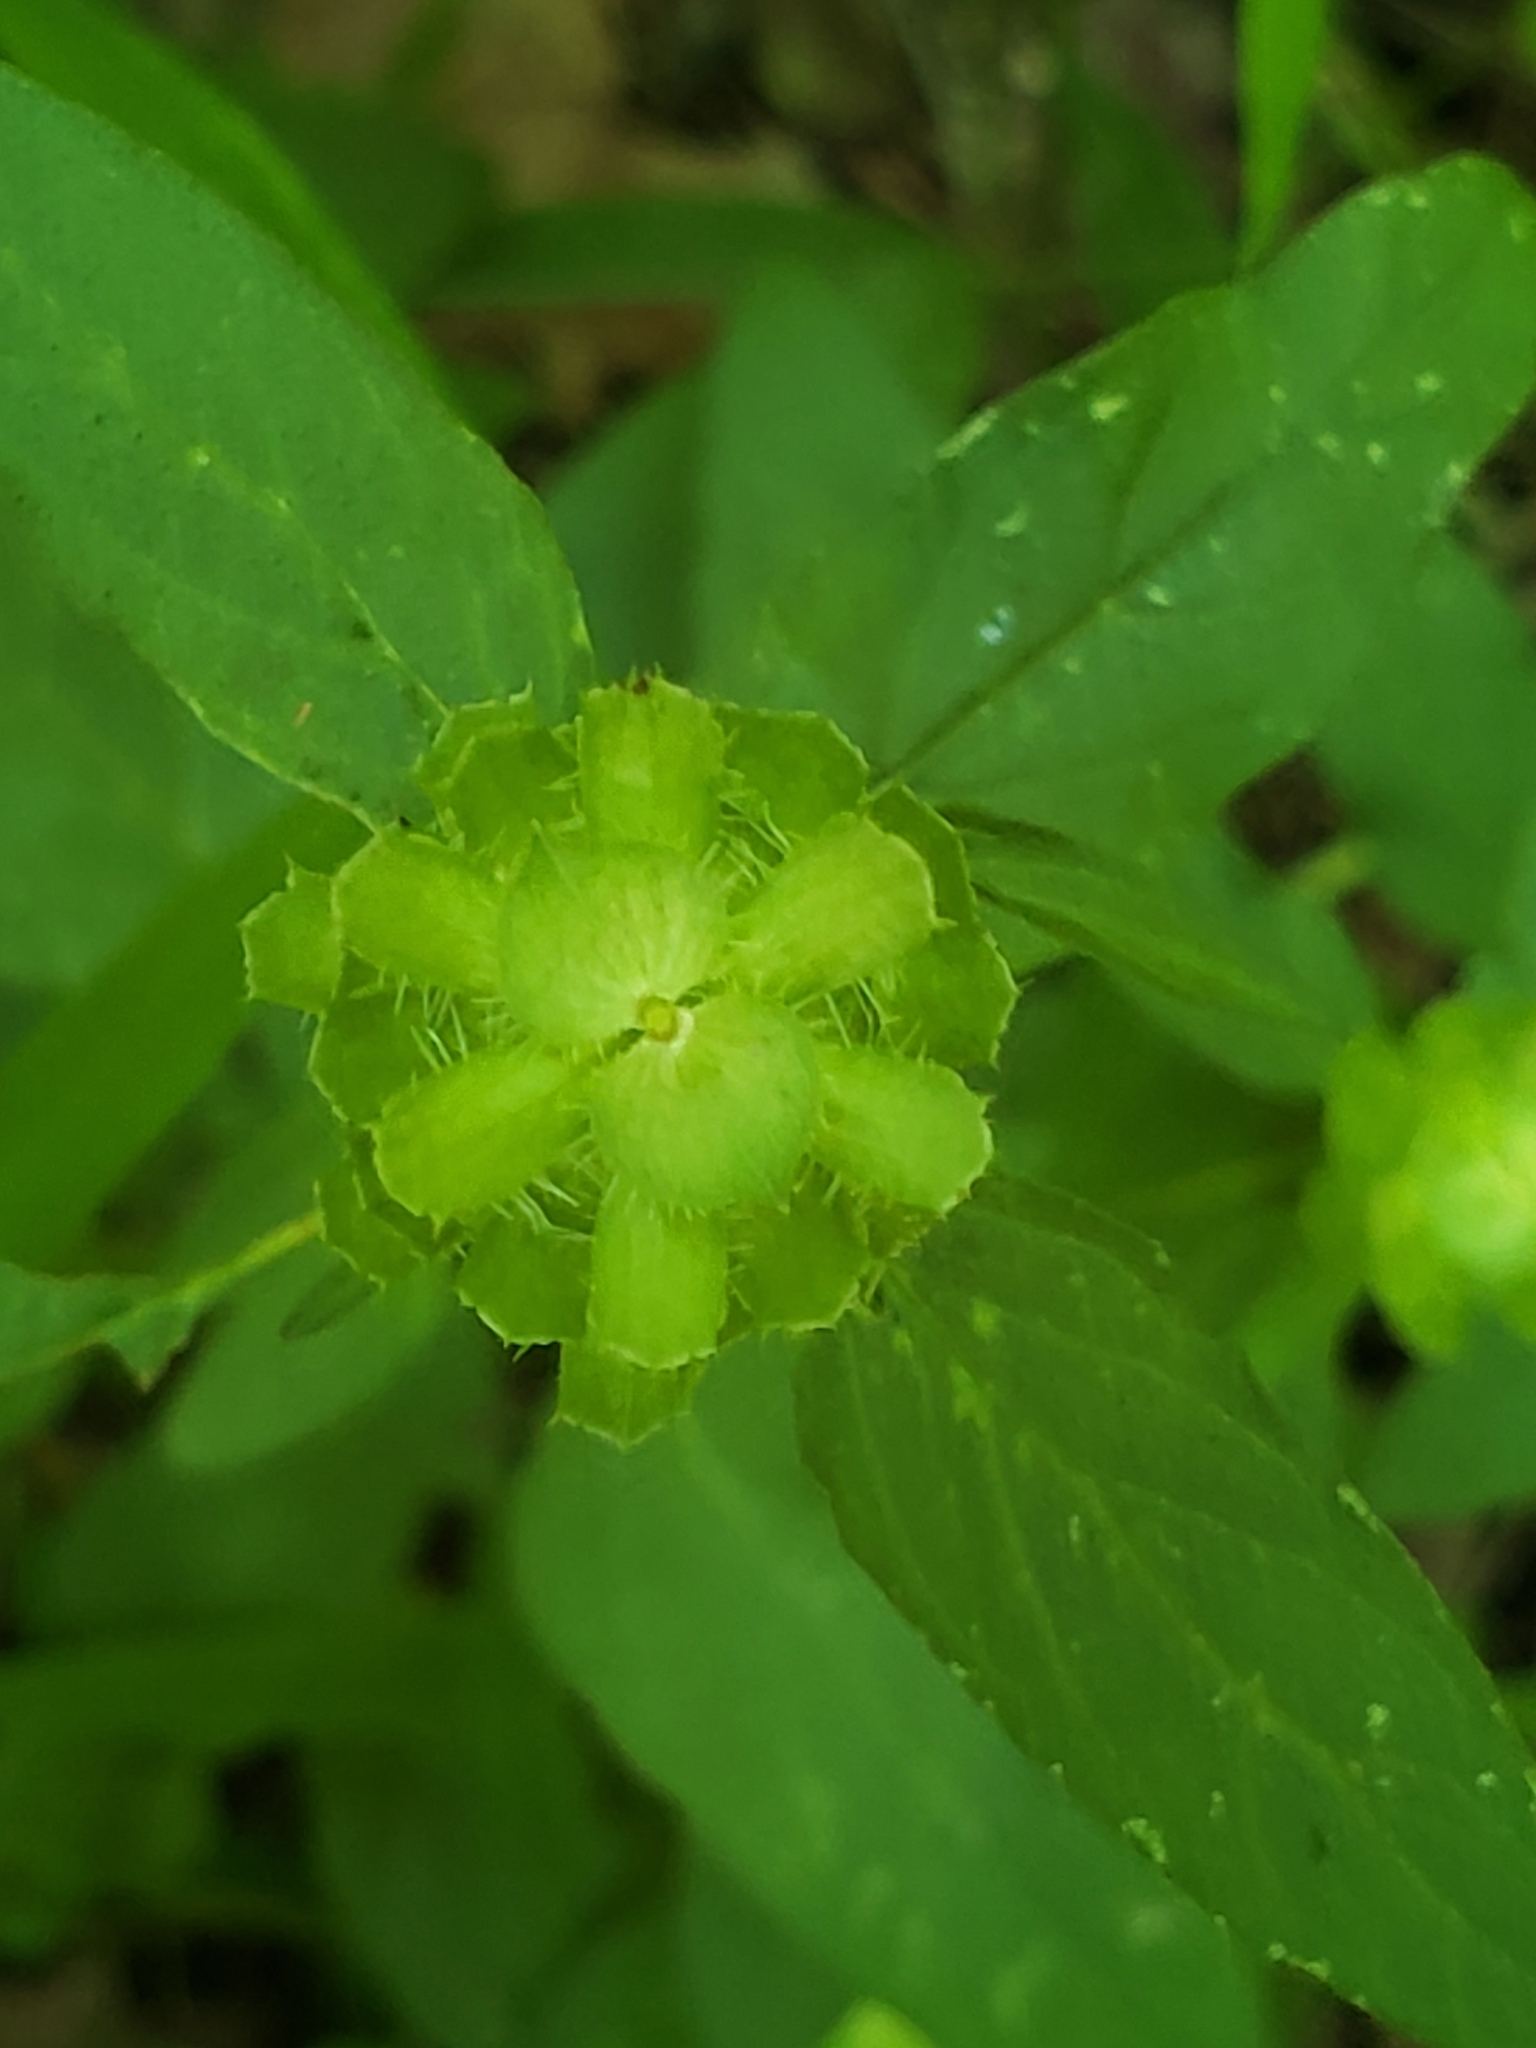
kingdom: Plantae
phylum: Tracheophyta
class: Magnoliopsida
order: Lamiales
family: Lamiaceae
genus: Prunella
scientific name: Prunella vulgaris
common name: Heal-all
